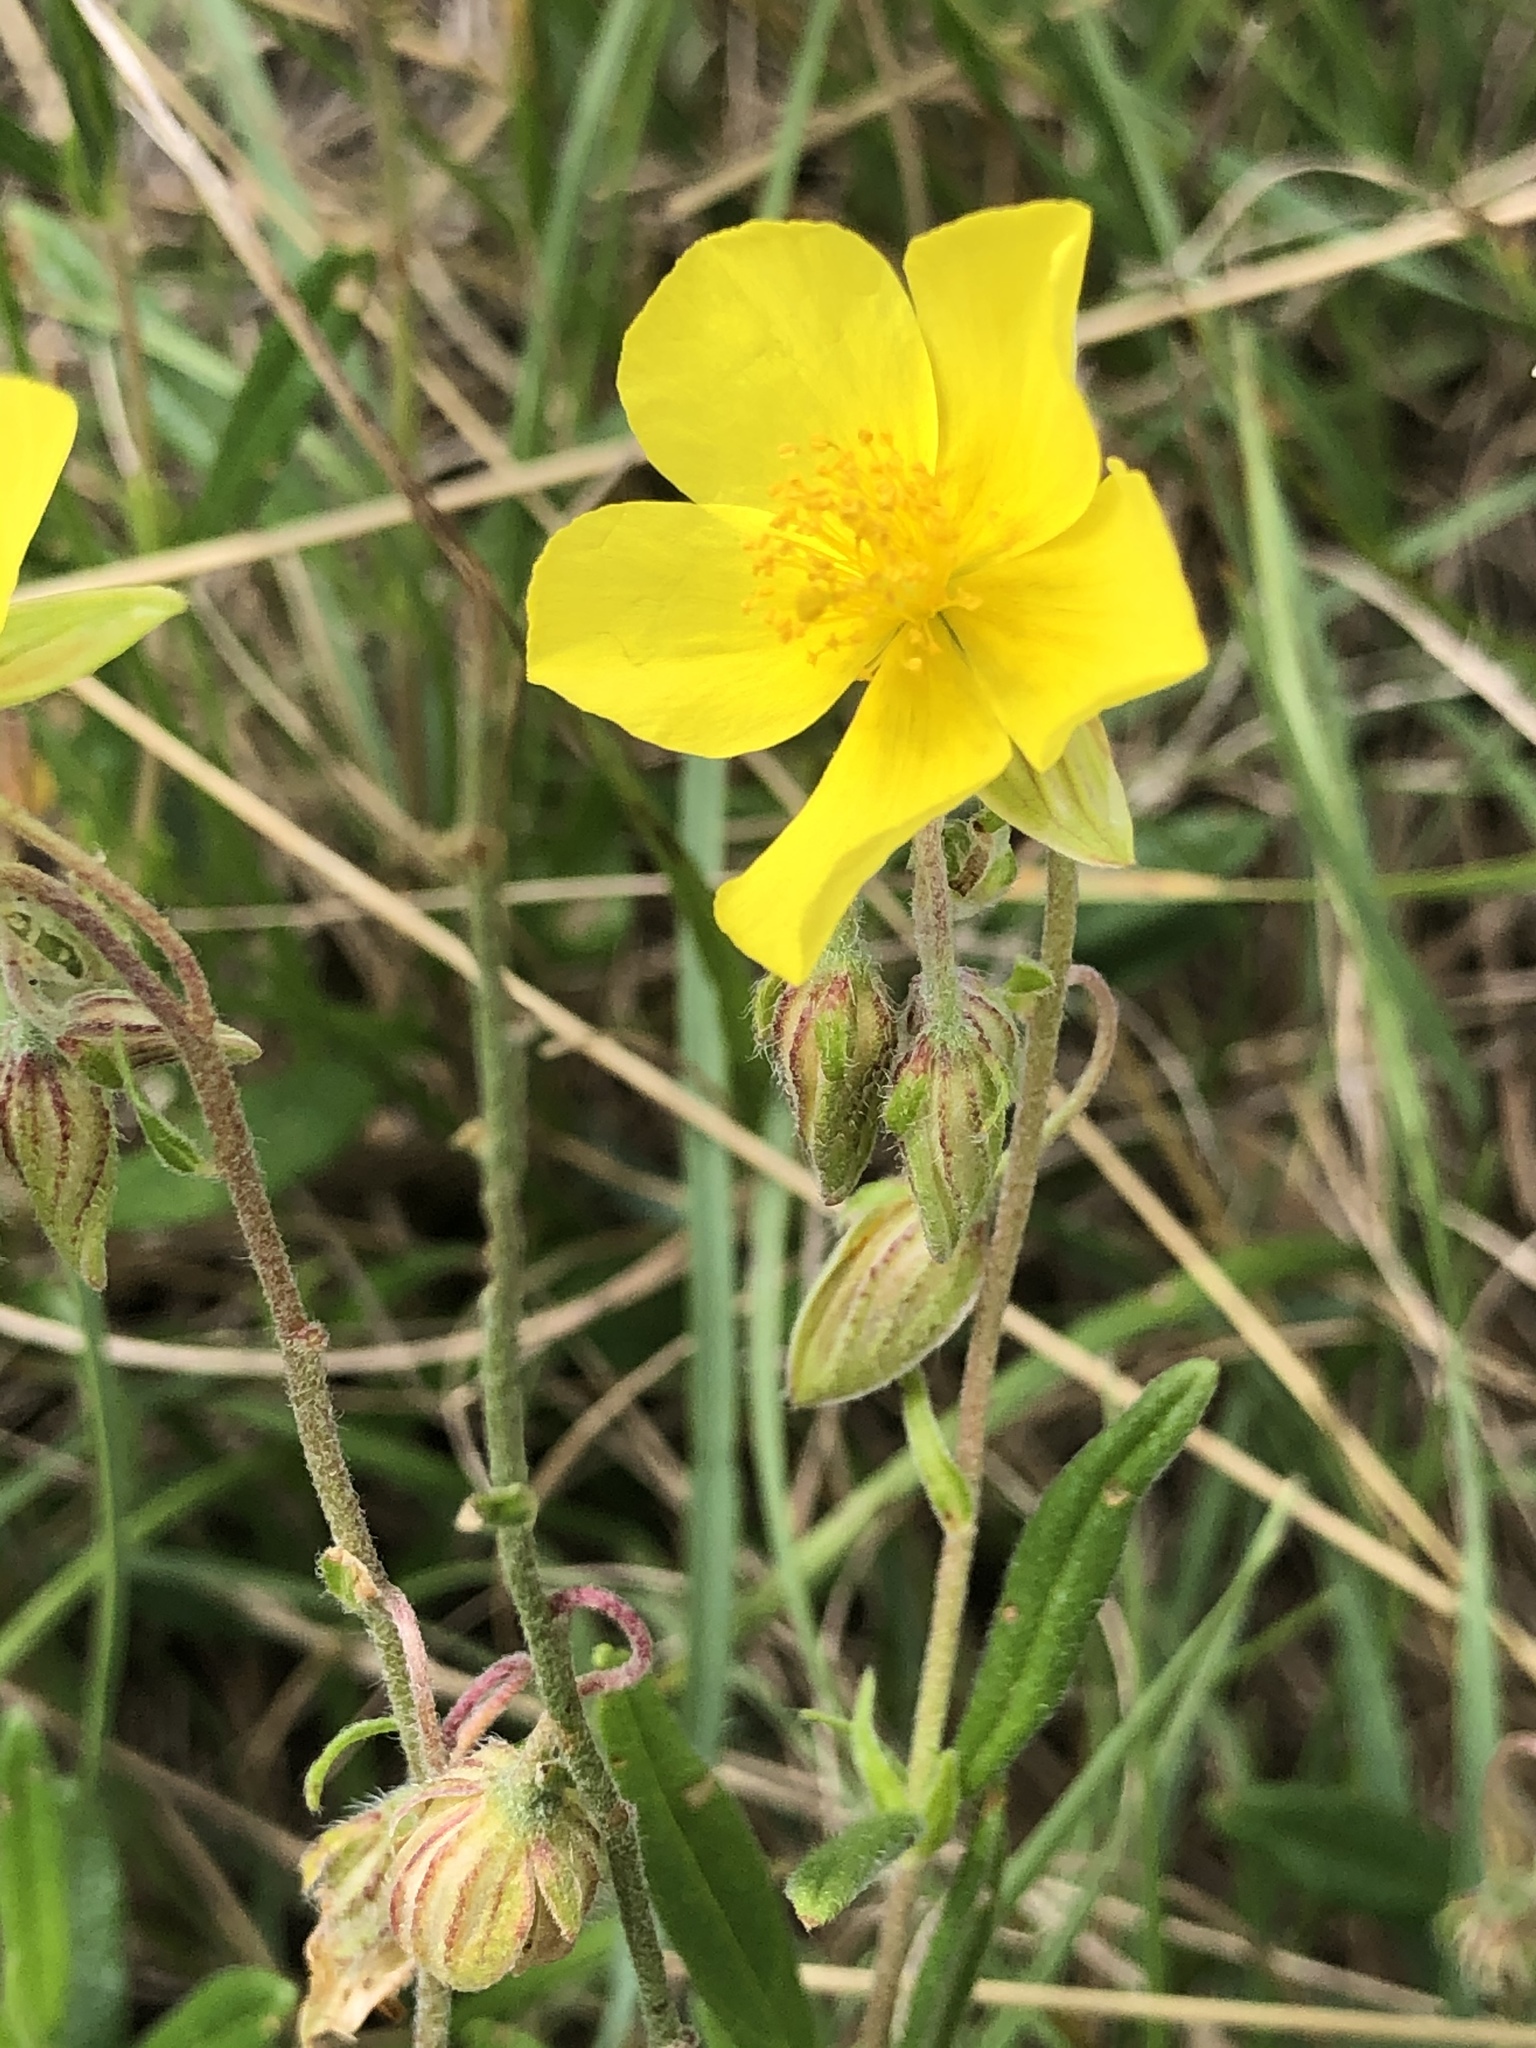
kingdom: Plantae
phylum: Tracheophyta
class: Magnoliopsida
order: Malvales
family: Cistaceae
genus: Helianthemum
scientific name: Helianthemum nummularium
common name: Common rock-rose
